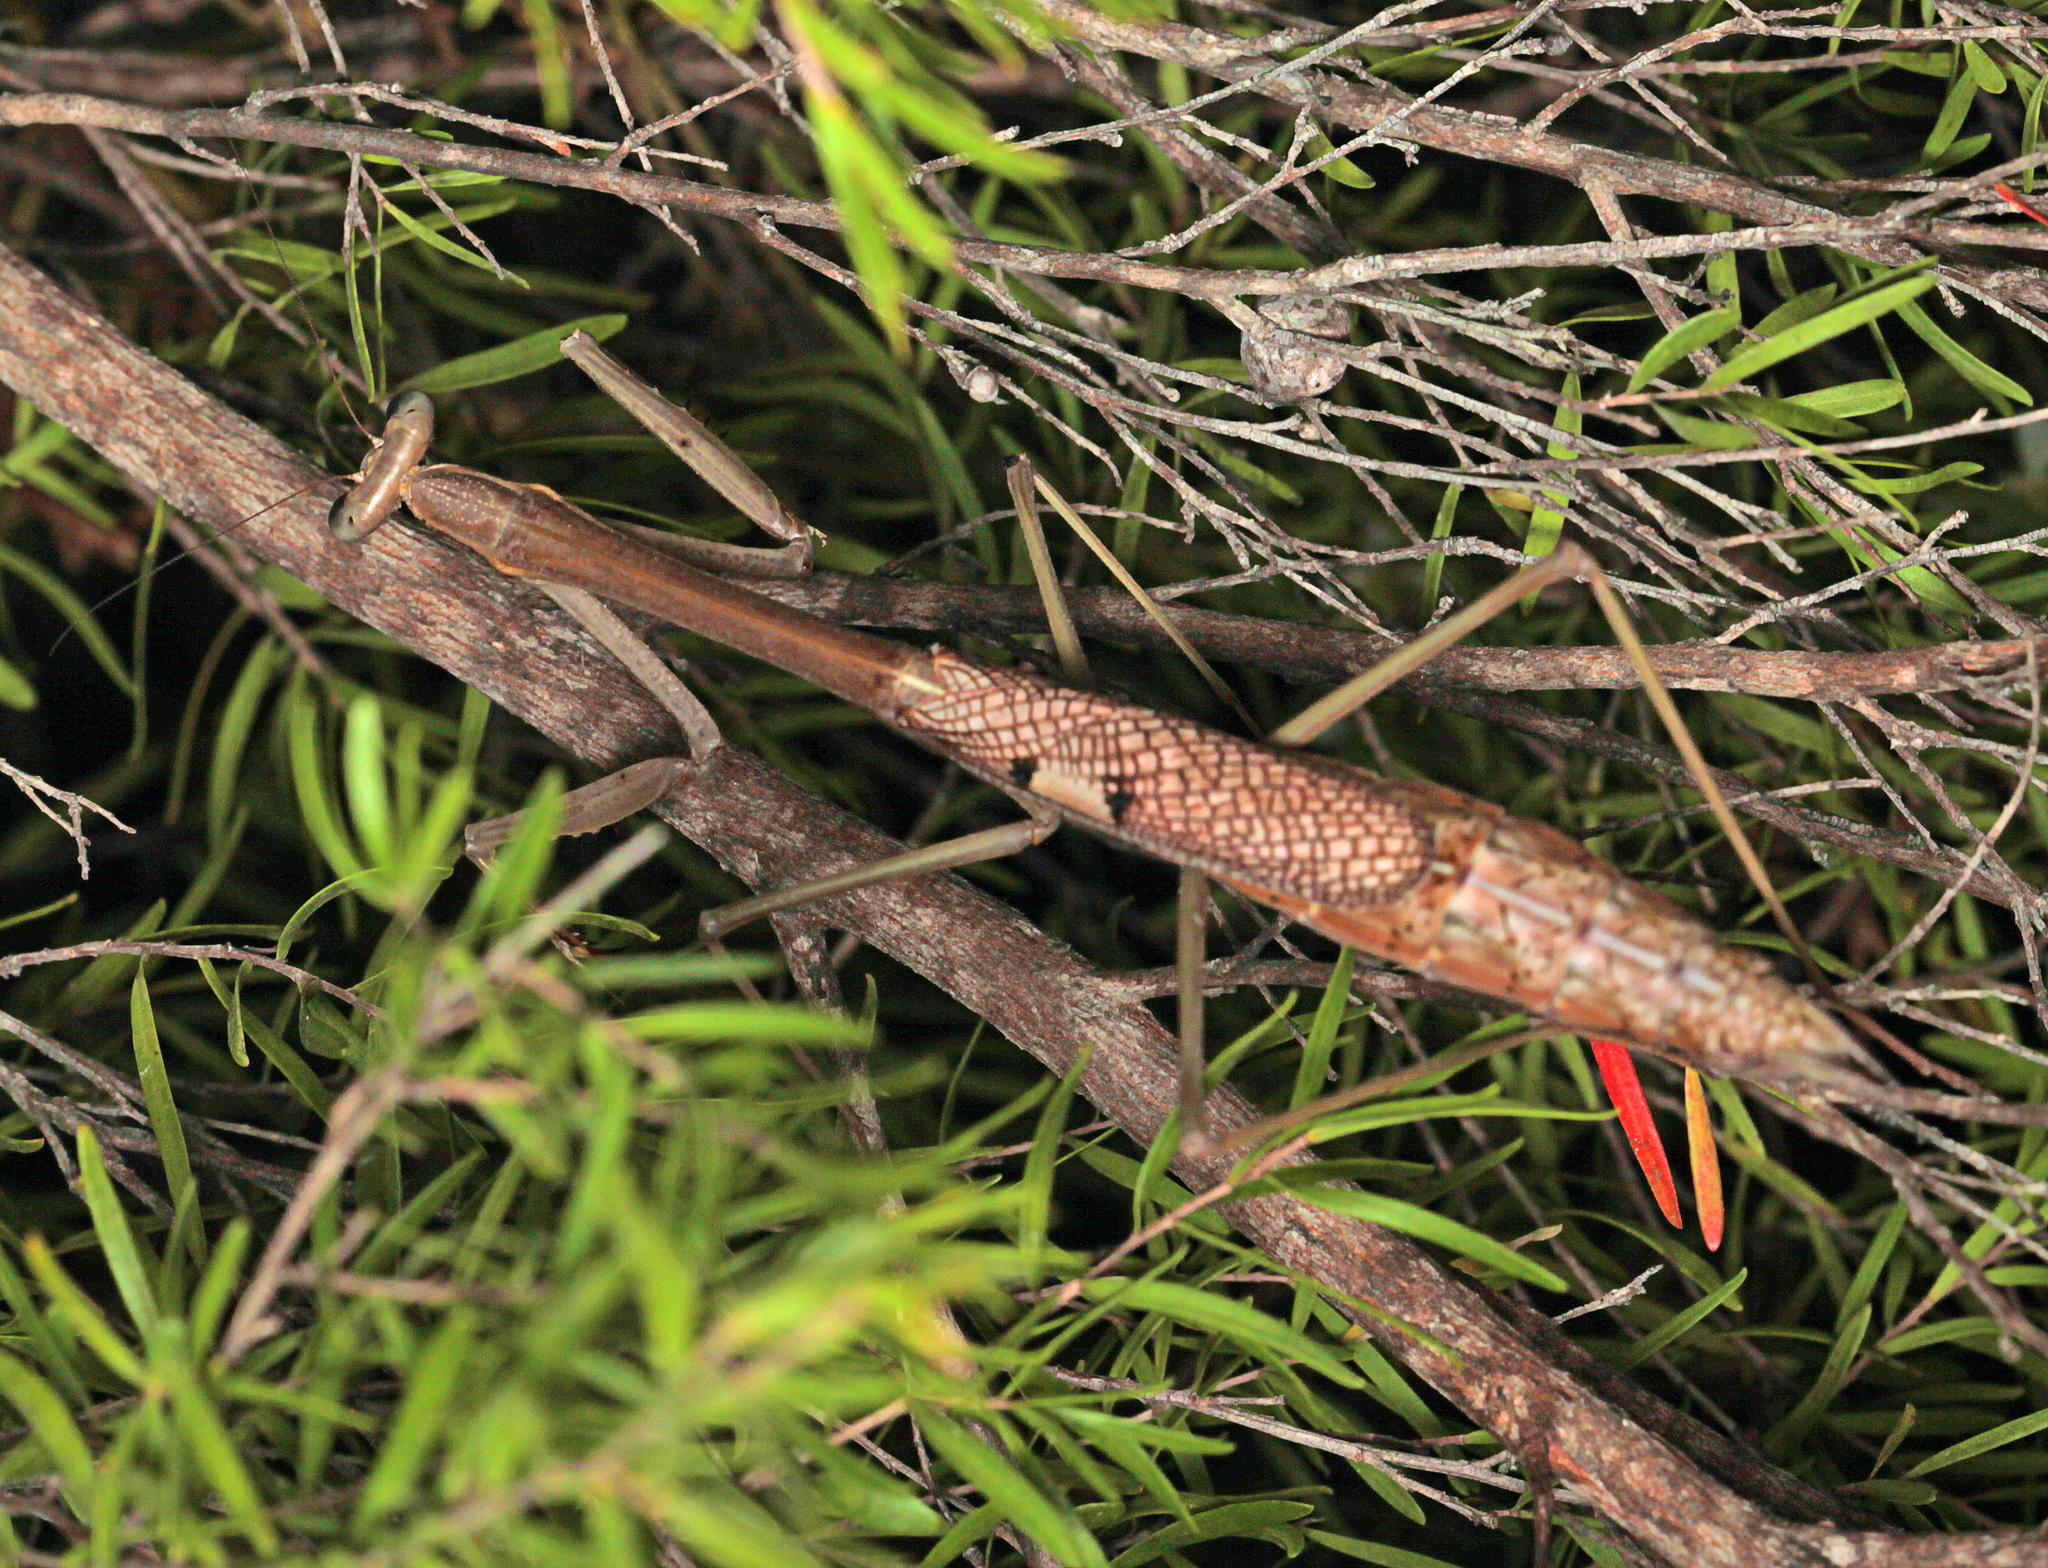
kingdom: Animalia
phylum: Arthropoda
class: Insecta
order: Mantodea
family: Mantidae
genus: Archimantis
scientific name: Archimantis latistyla
